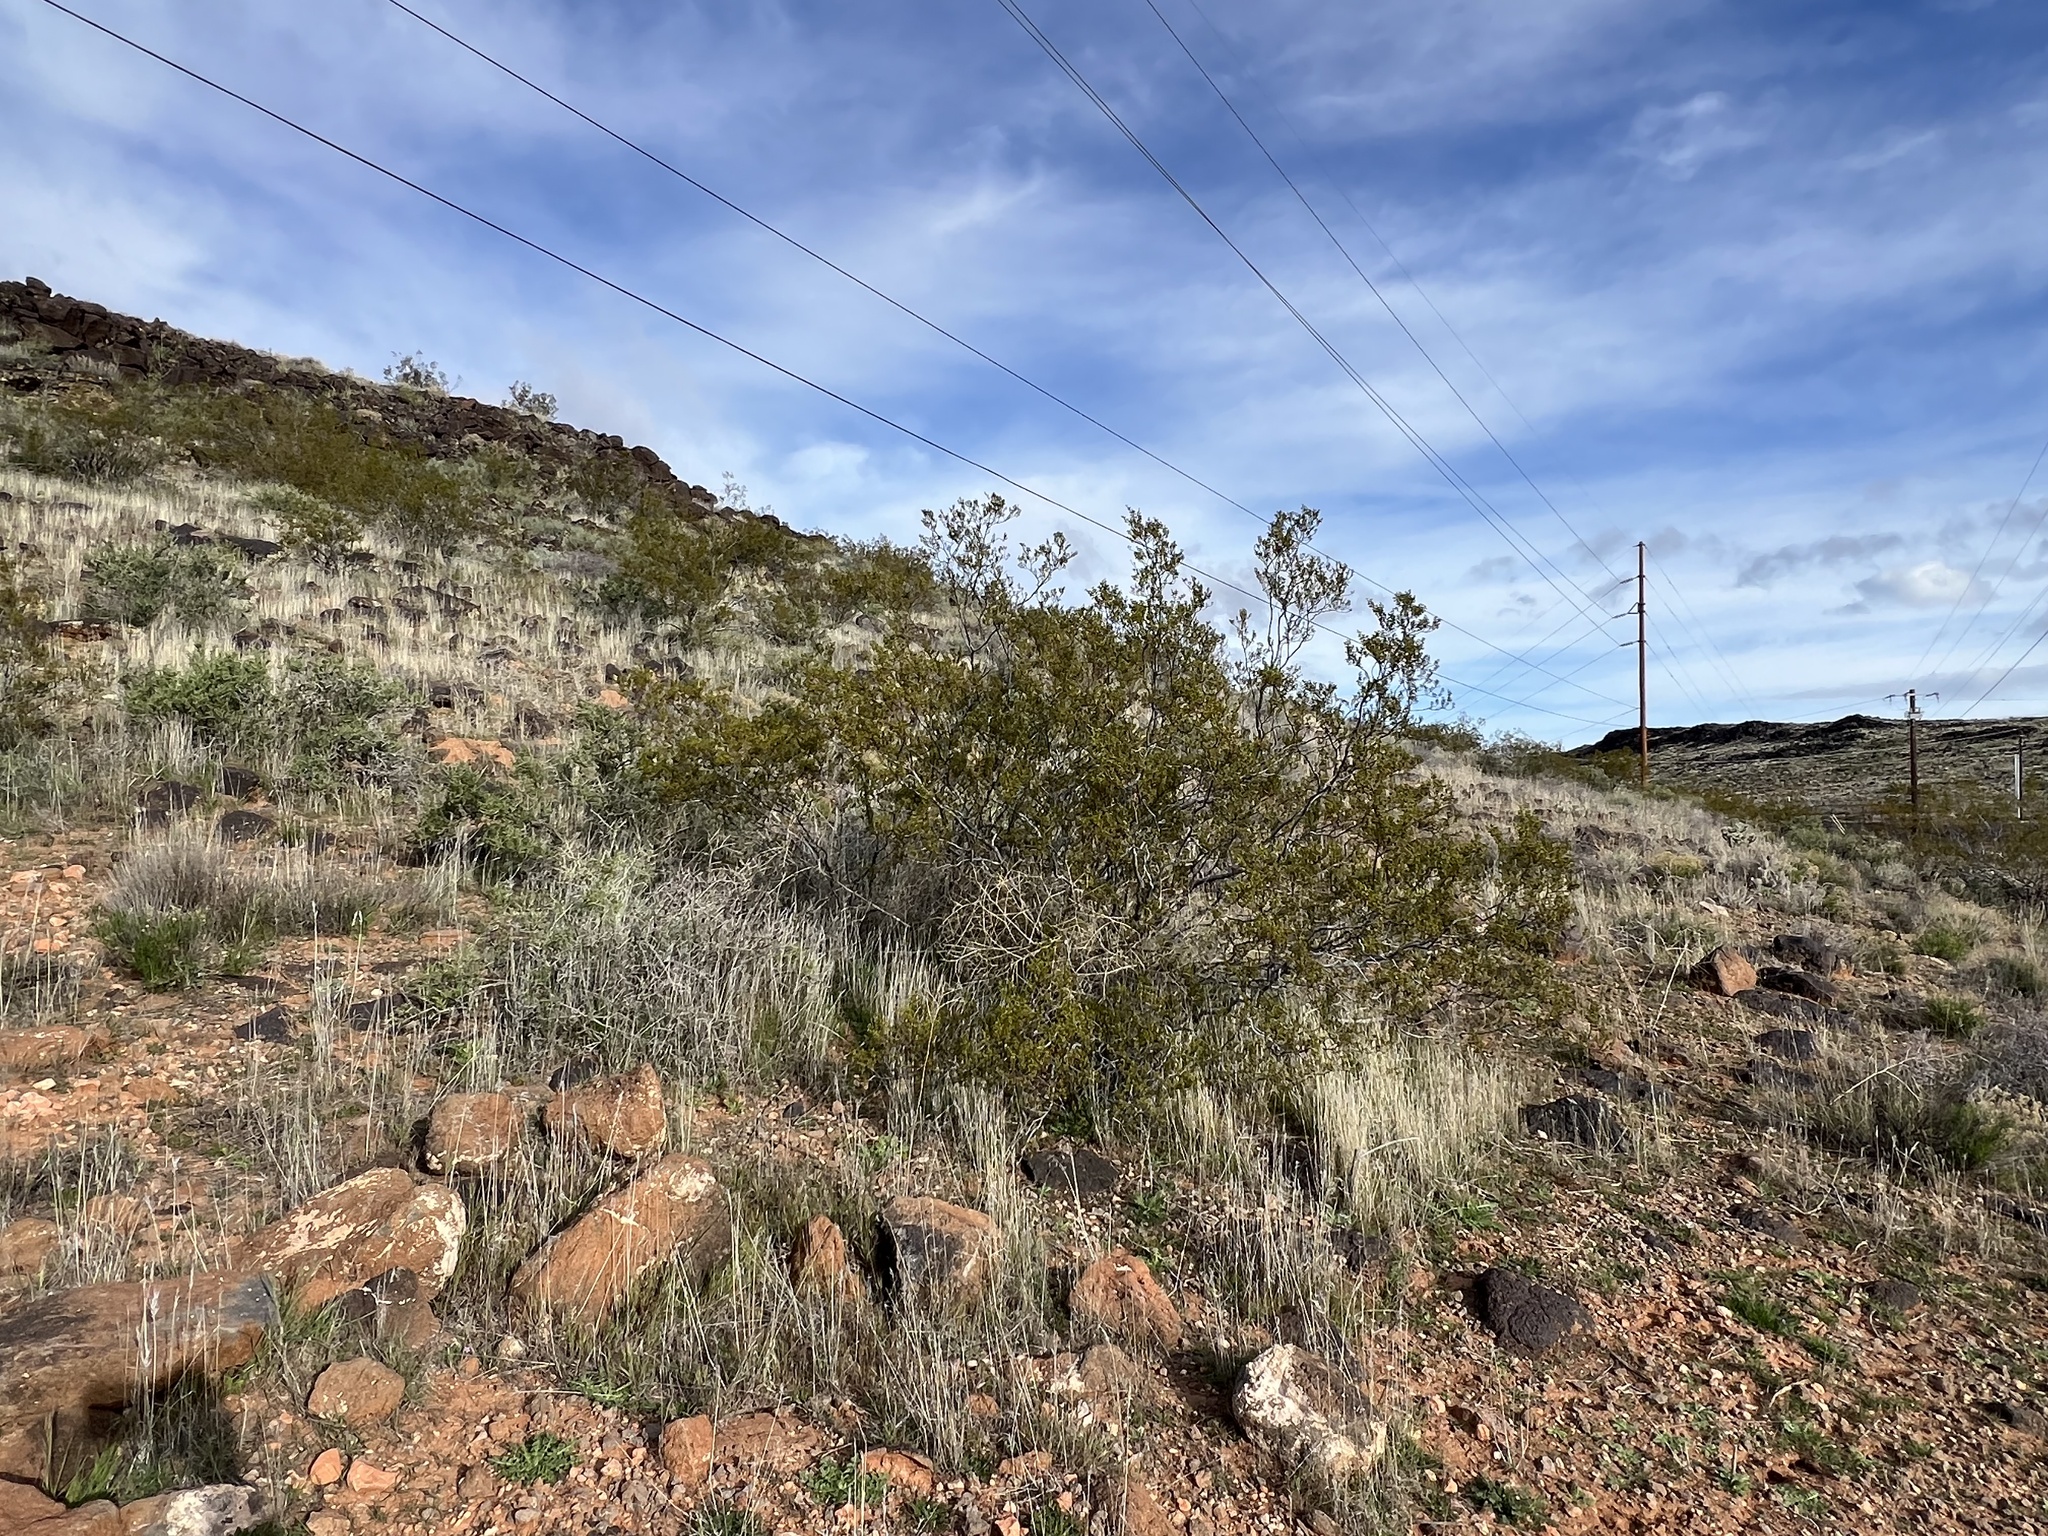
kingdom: Plantae
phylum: Tracheophyta
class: Magnoliopsida
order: Zygophyllales
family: Zygophyllaceae
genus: Larrea
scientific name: Larrea tridentata
